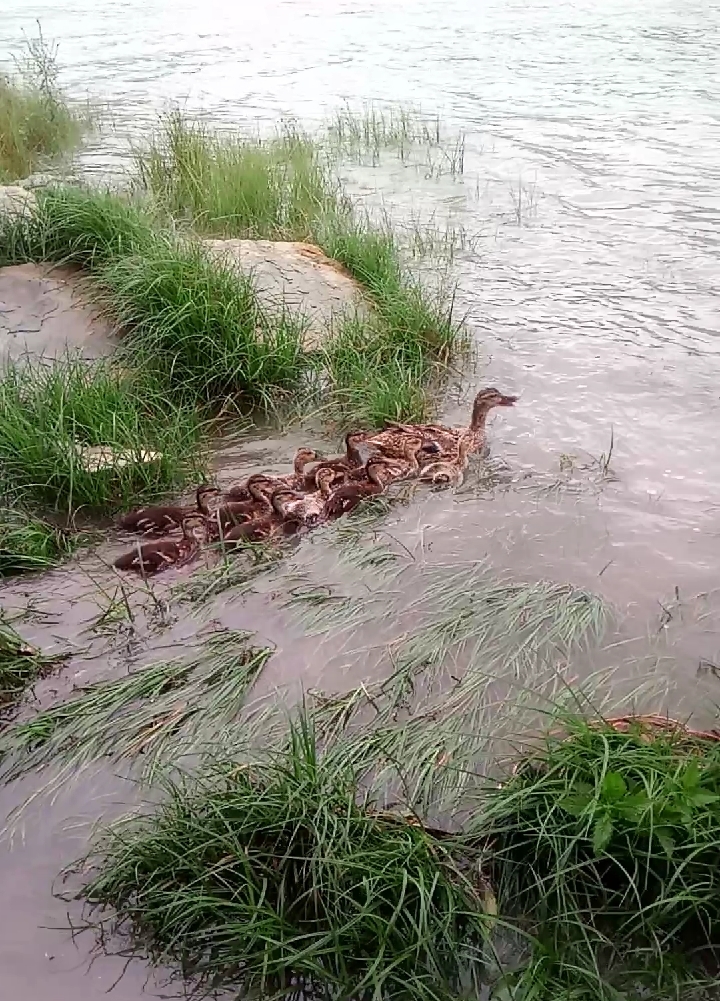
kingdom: Animalia
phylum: Chordata
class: Aves
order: Anseriformes
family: Anatidae
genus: Anas
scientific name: Anas platyrhynchos
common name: Mallard
